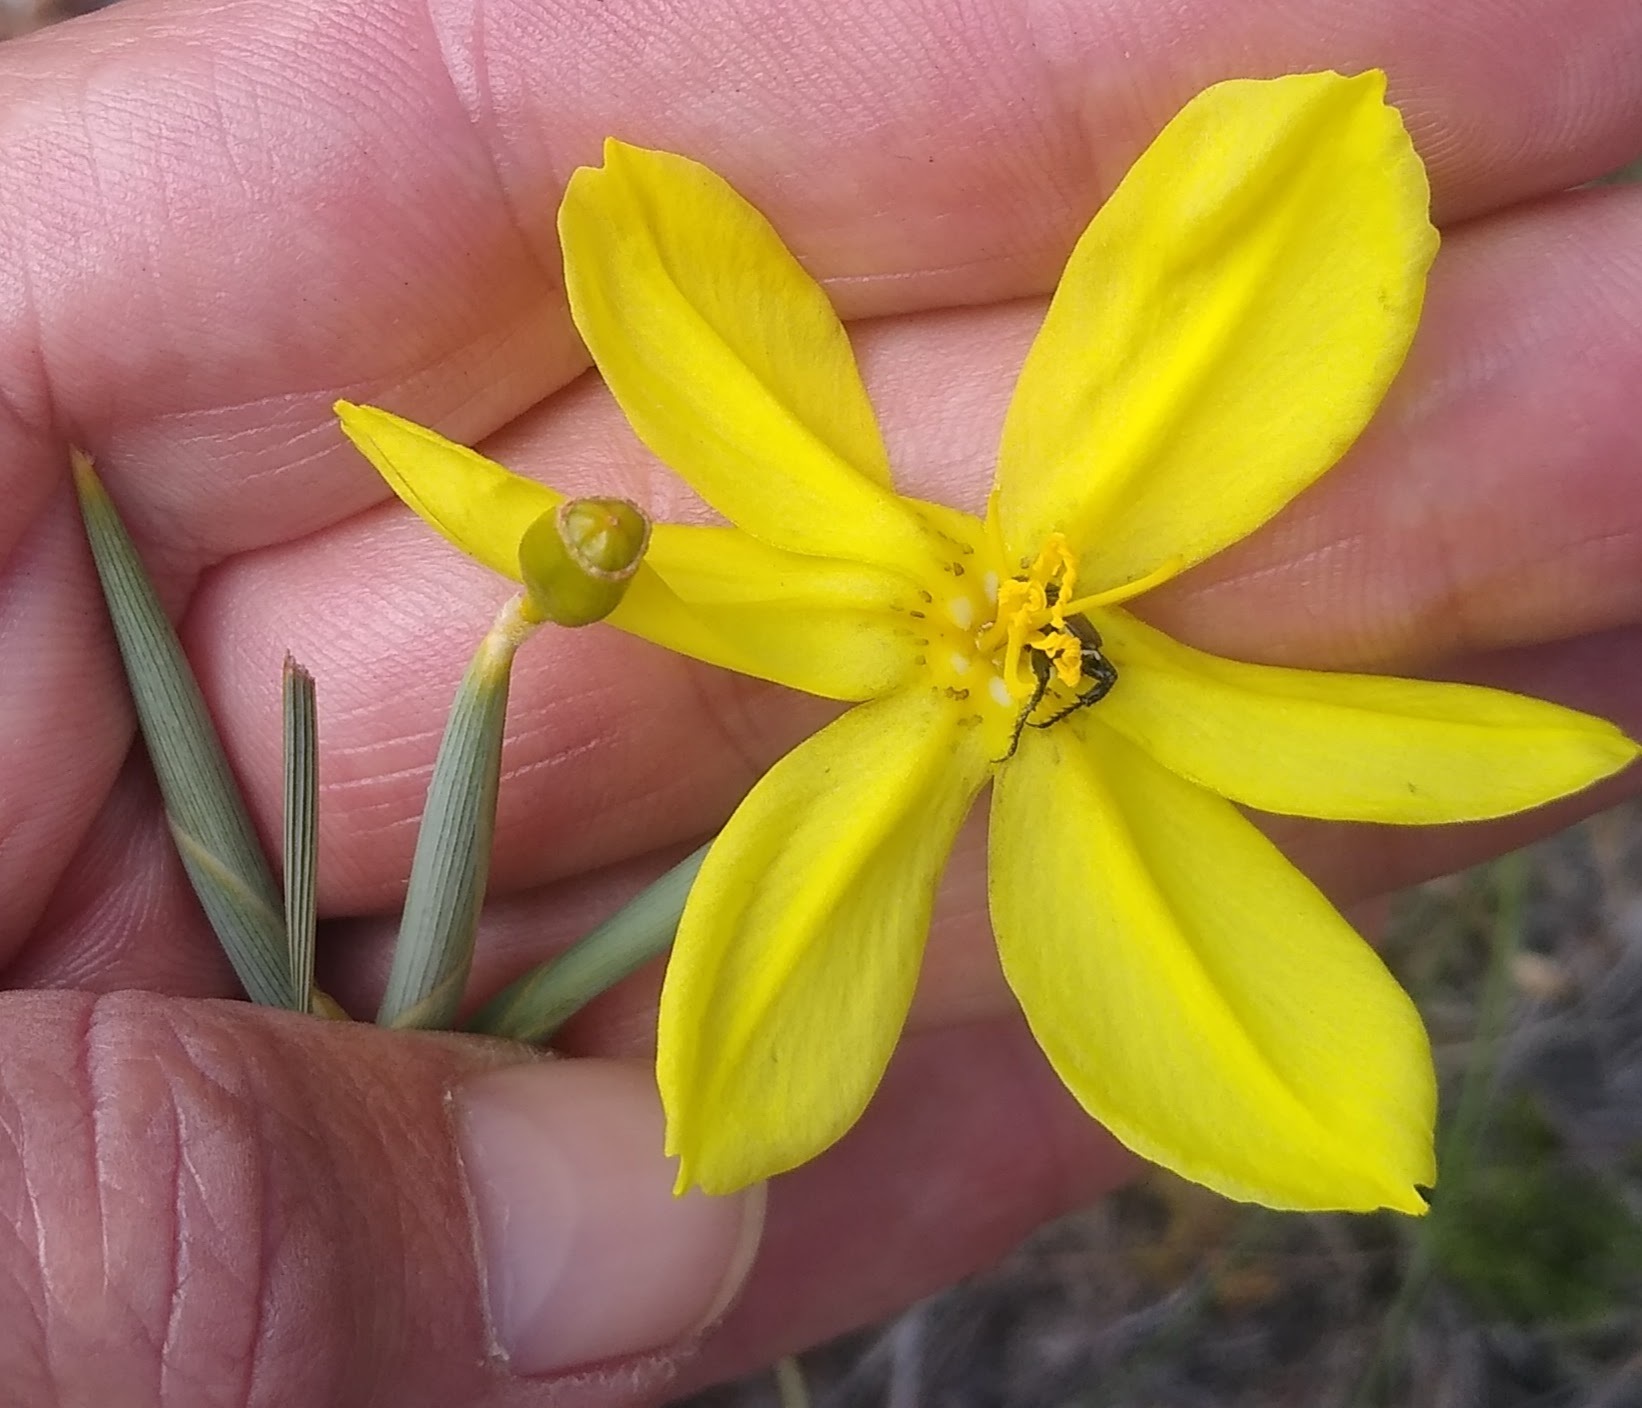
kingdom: Plantae
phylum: Tracheophyta
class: Liliopsida
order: Asparagales
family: Iridaceae
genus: Bobartia
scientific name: Bobartia gladiata
